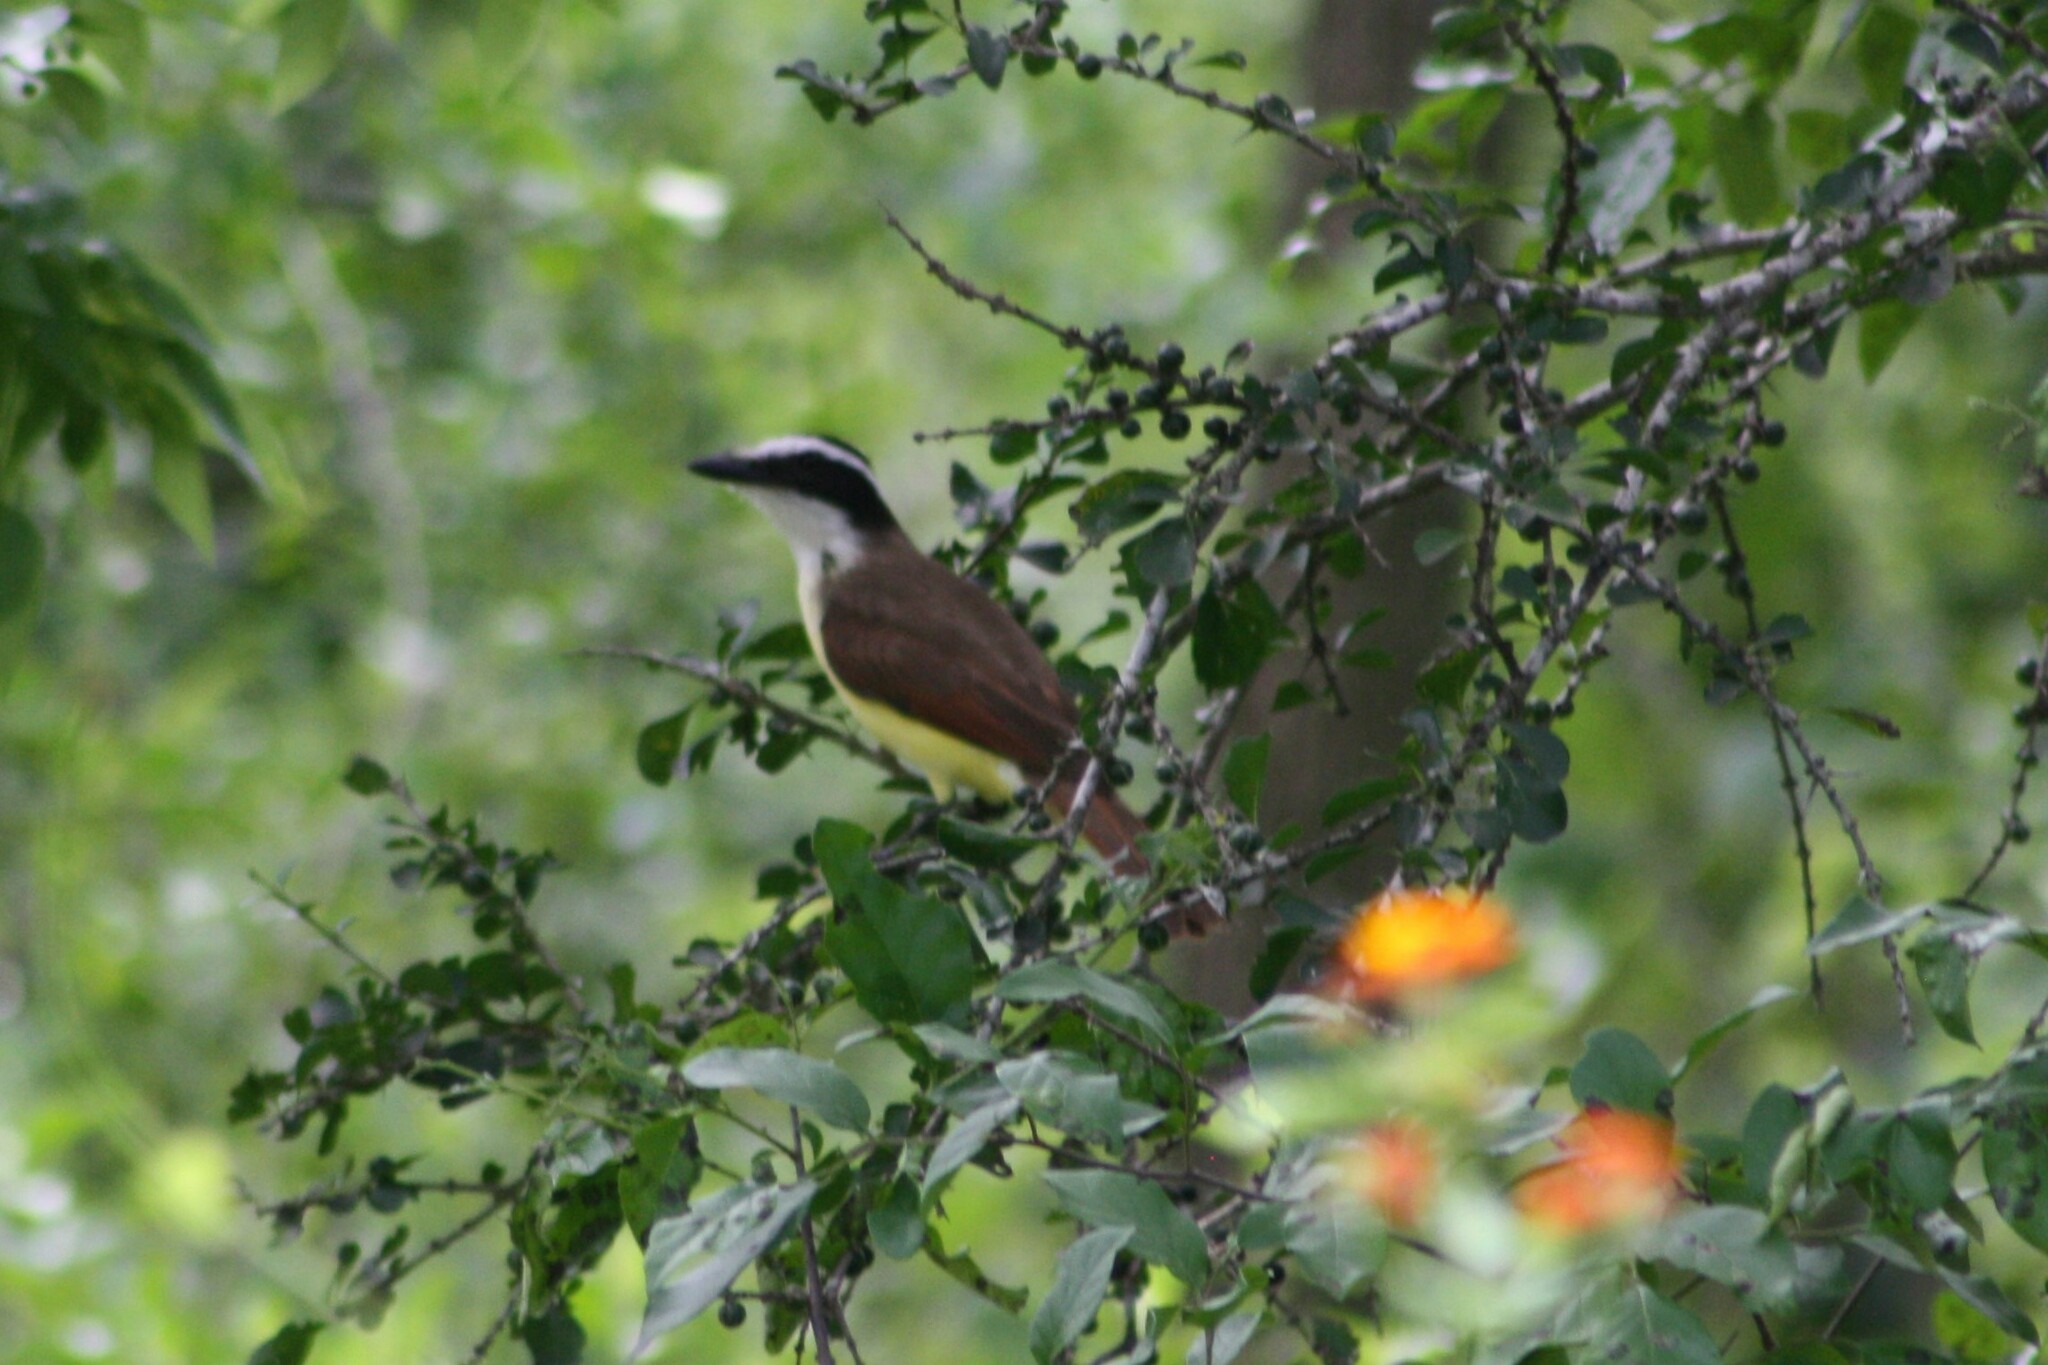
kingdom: Animalia
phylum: Chordata
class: Aves
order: Passeriformes
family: Tyrannidae
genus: Pitangus
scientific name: Pitangus sulphuratus
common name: Great kiskadee
